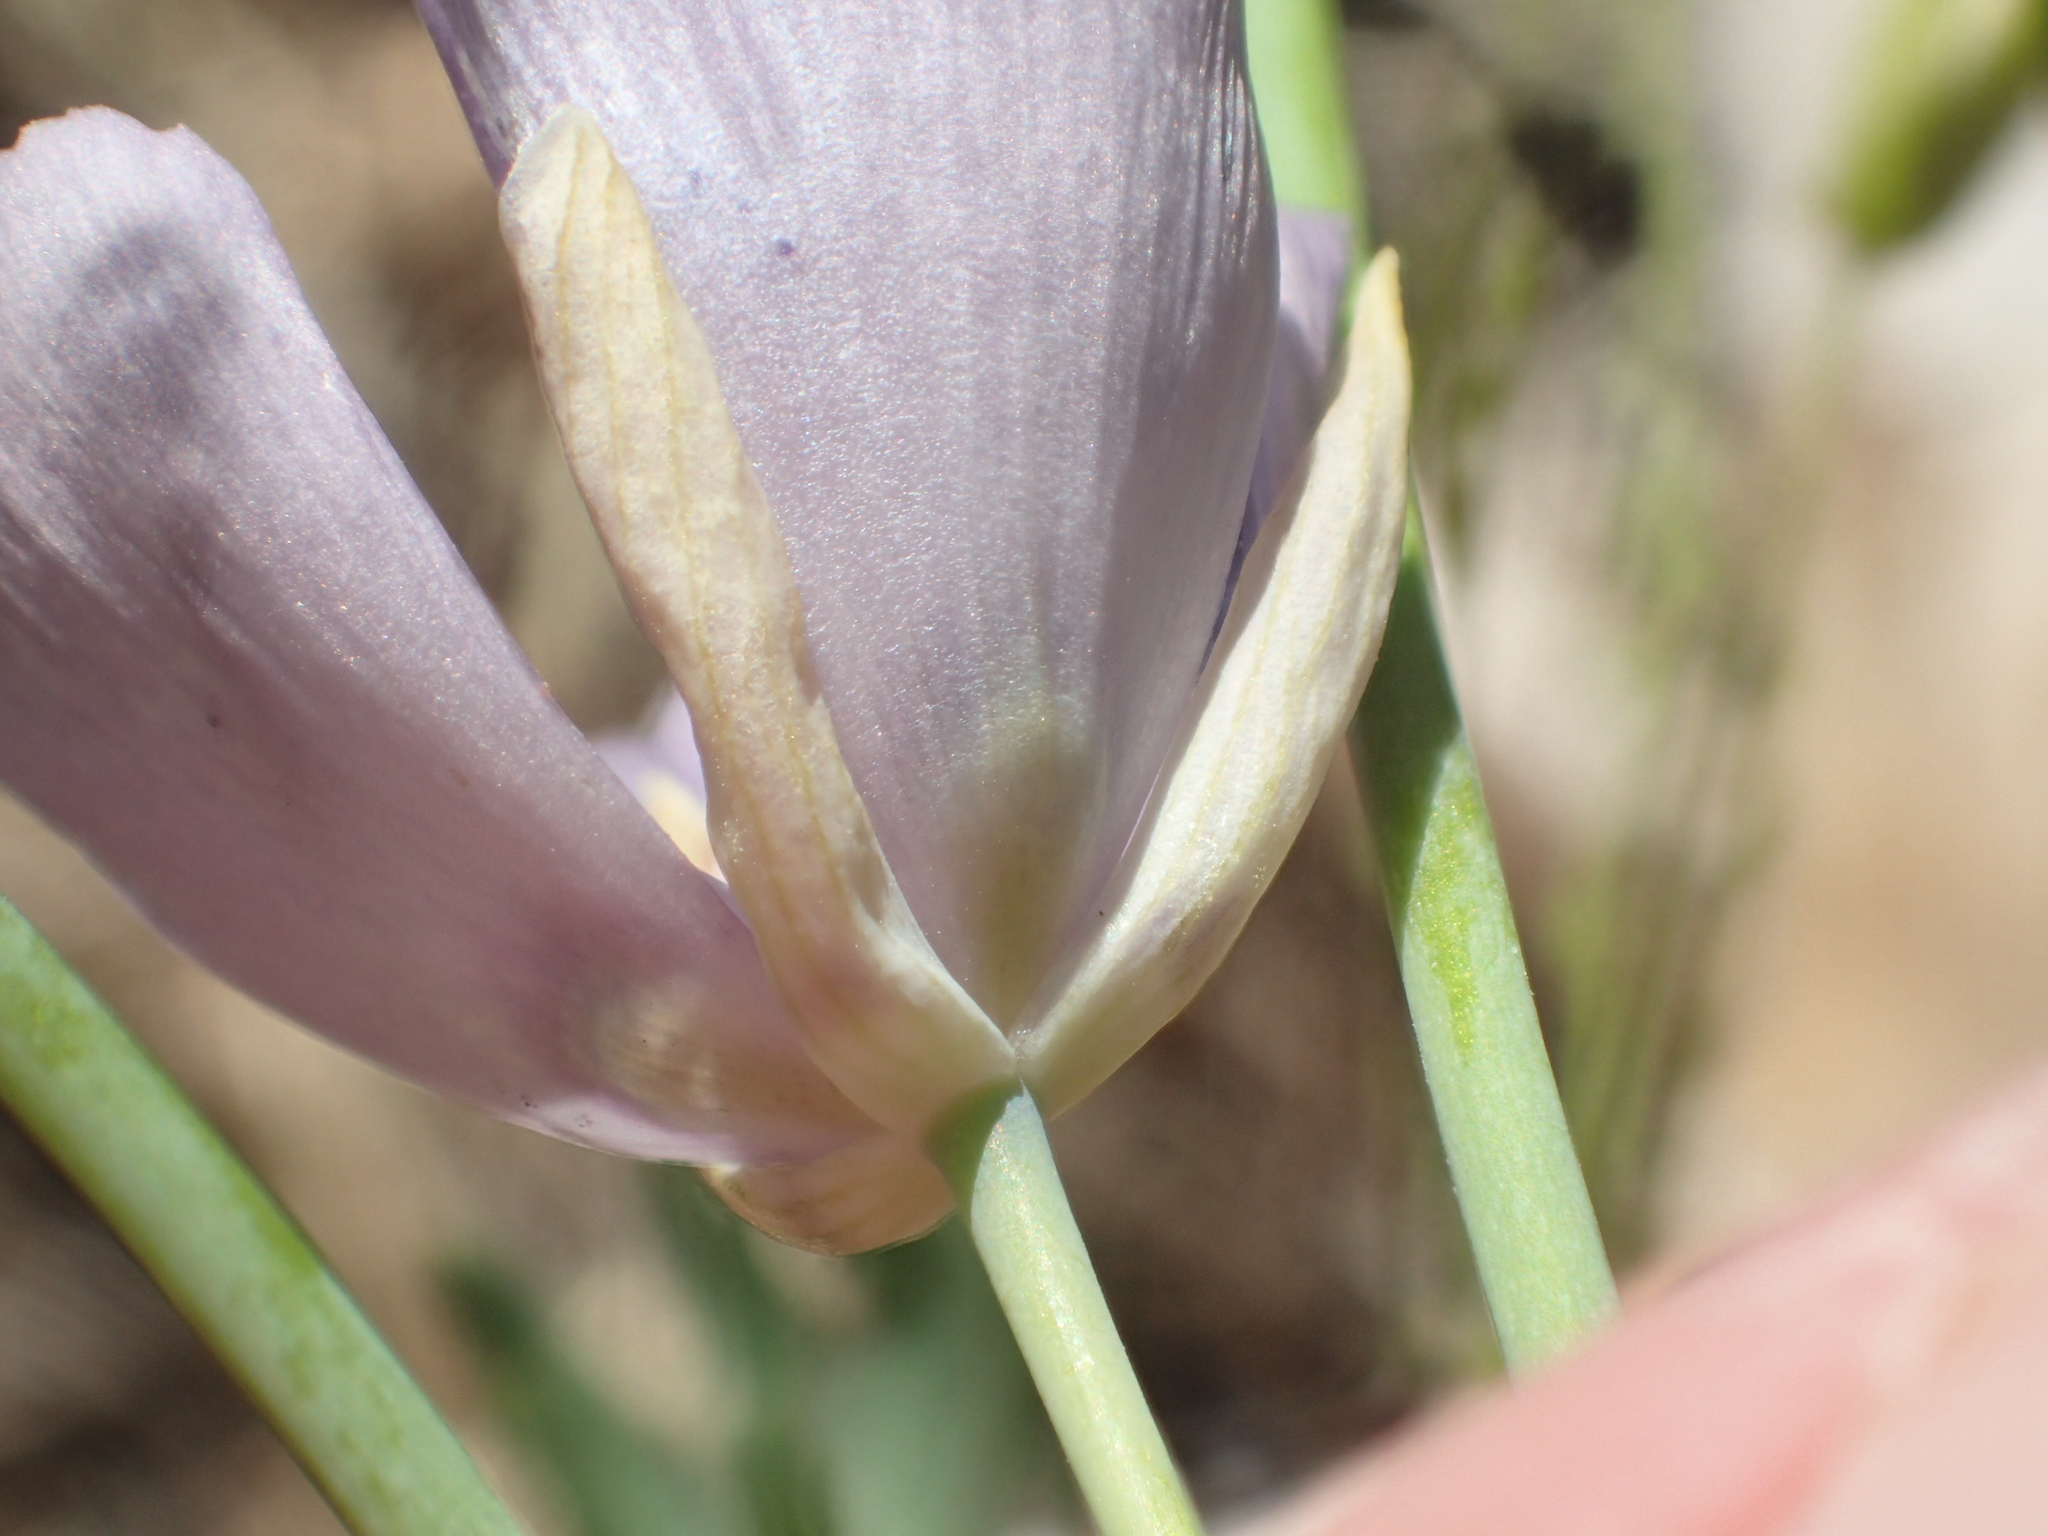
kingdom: Plantae
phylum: Tracheophyta
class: Liliopsida
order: Liliales
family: Liliaceae
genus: Calochortus
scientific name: Calochortus nudus
